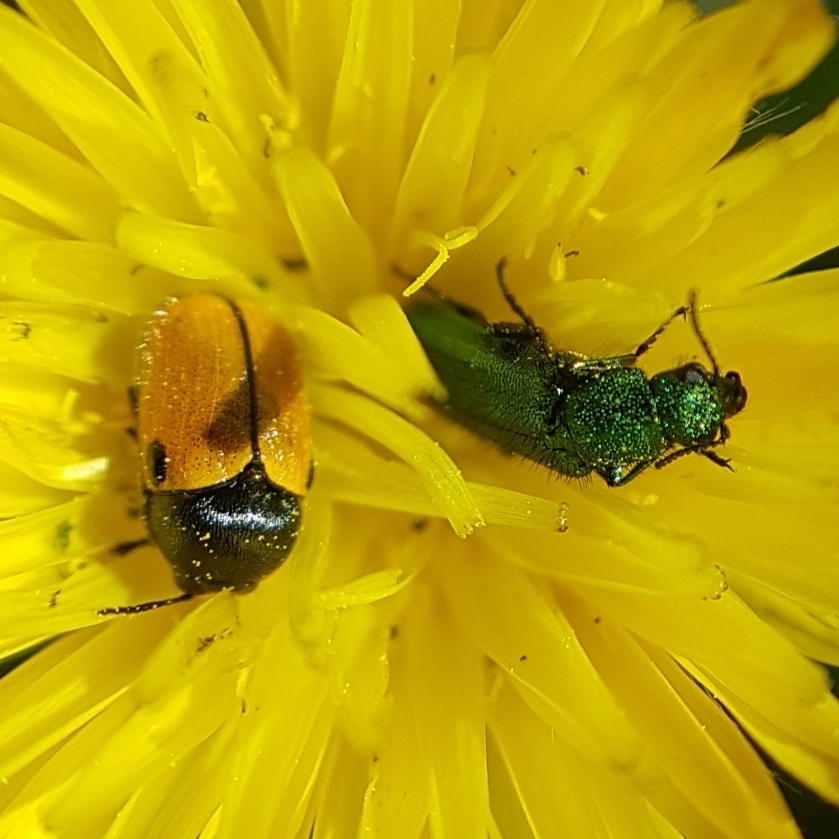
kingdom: Animalia
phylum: Arthropoda
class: Insecta
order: Coleoptera
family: Chrysomelidae
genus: Cryptocephalus
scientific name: Cryptocephalus rugicollis
